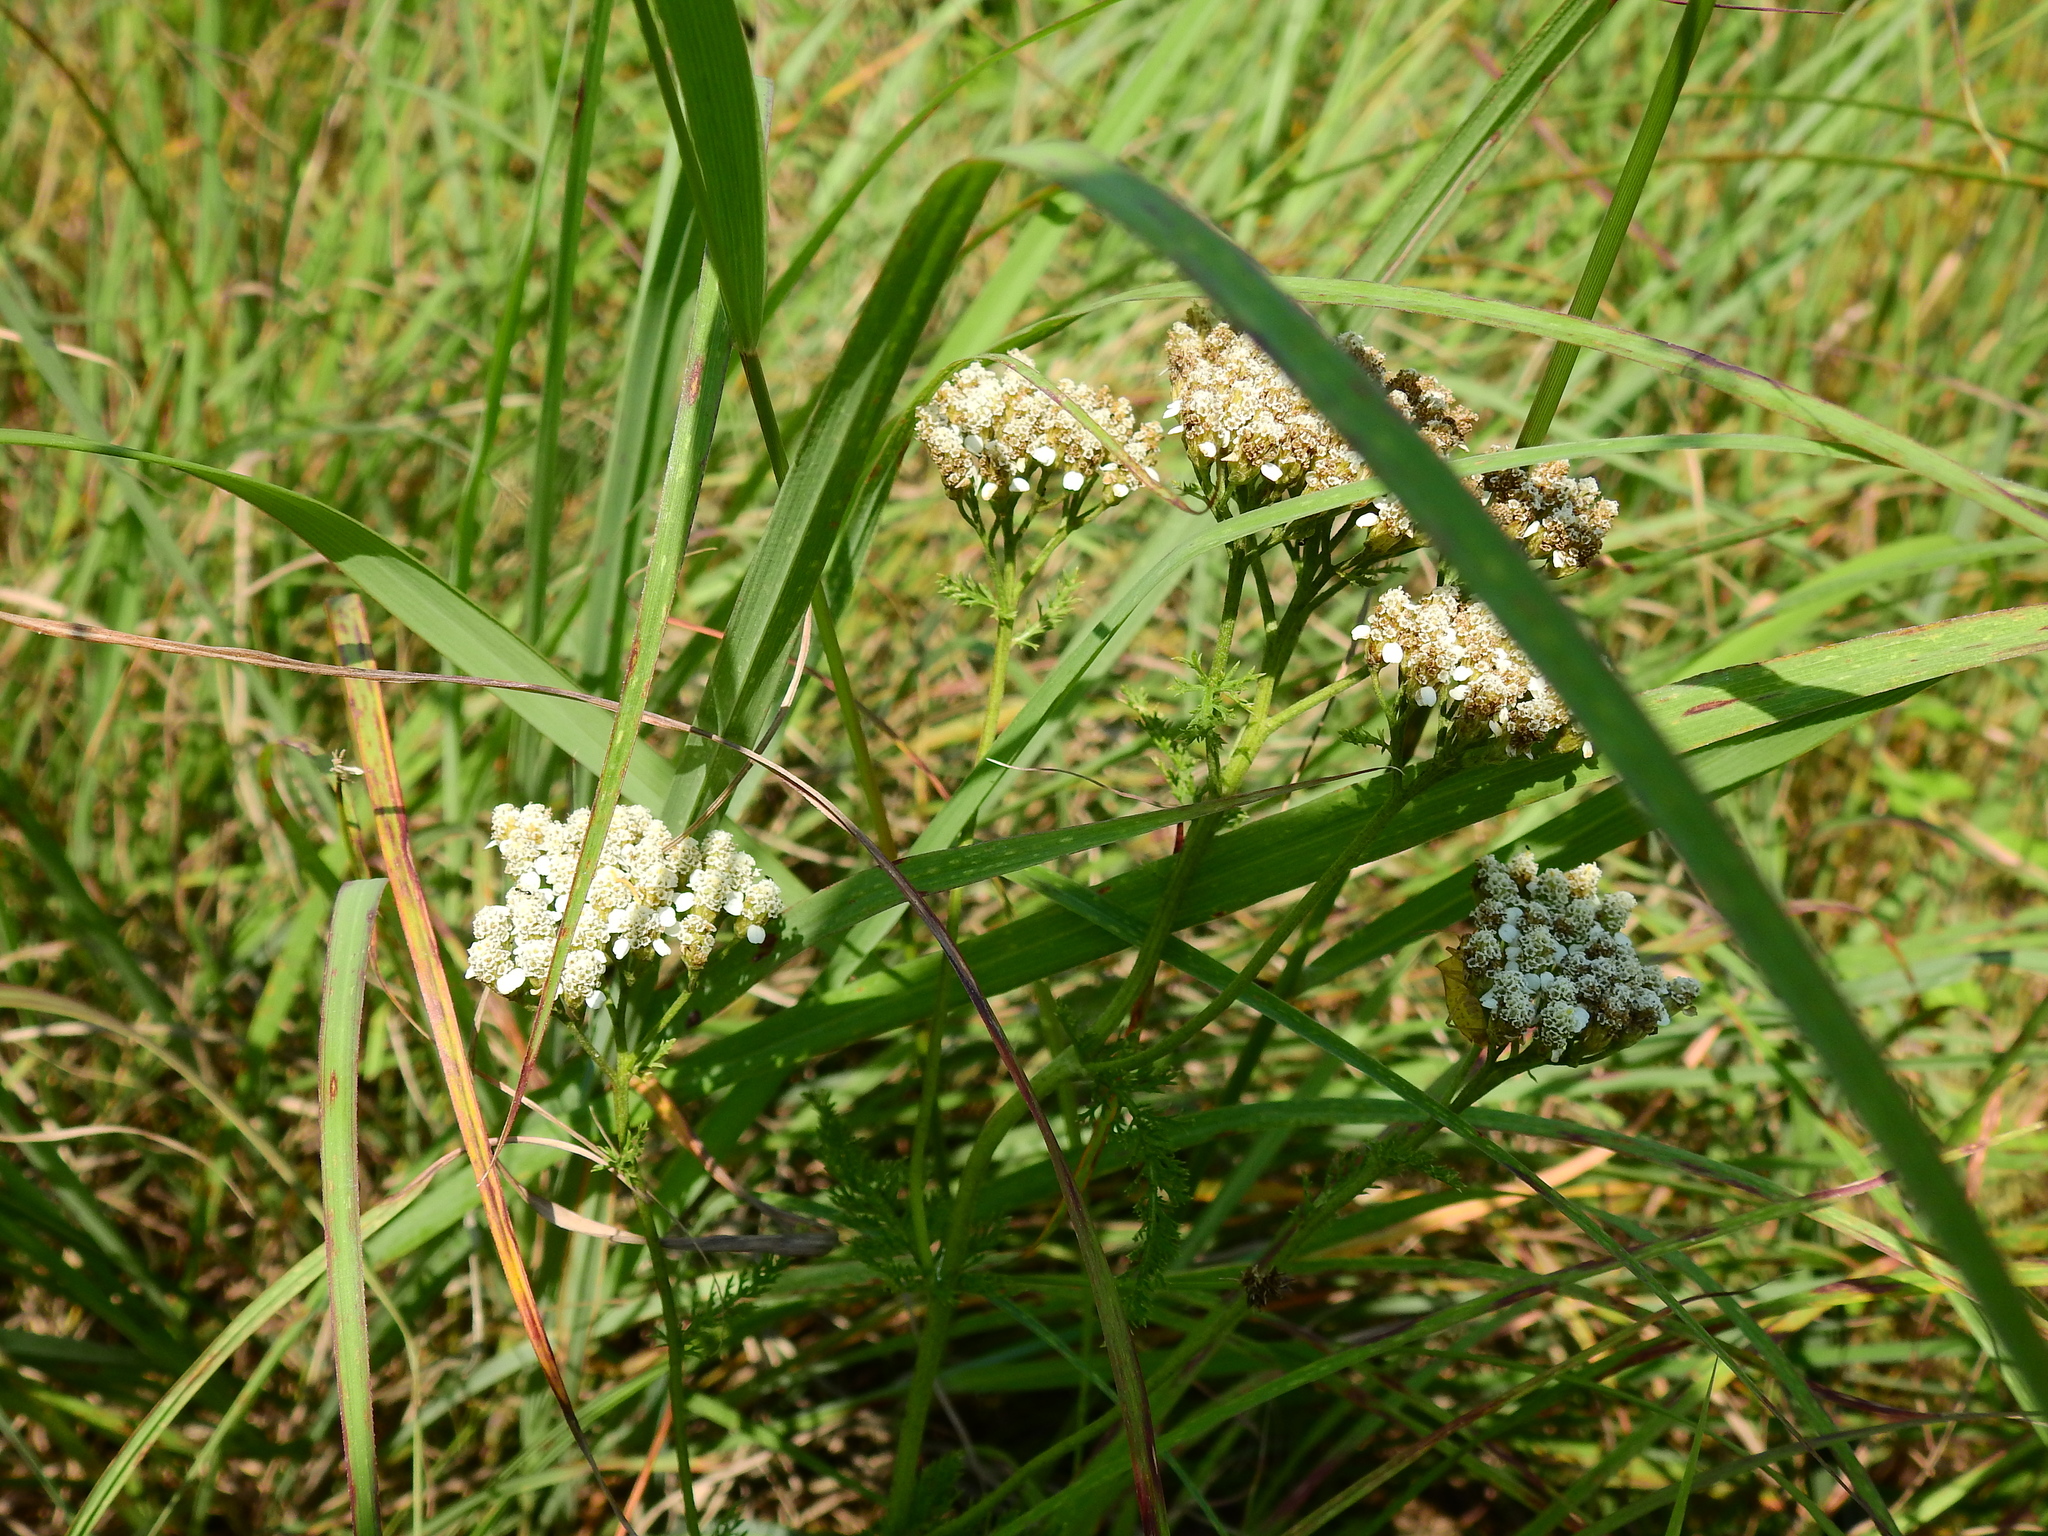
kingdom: Plantae
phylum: Tracheophyta
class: Magnoliopsida
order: Asterales
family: Asteraceae
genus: Achillea
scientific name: Achillea millefolium
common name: Yarrow
